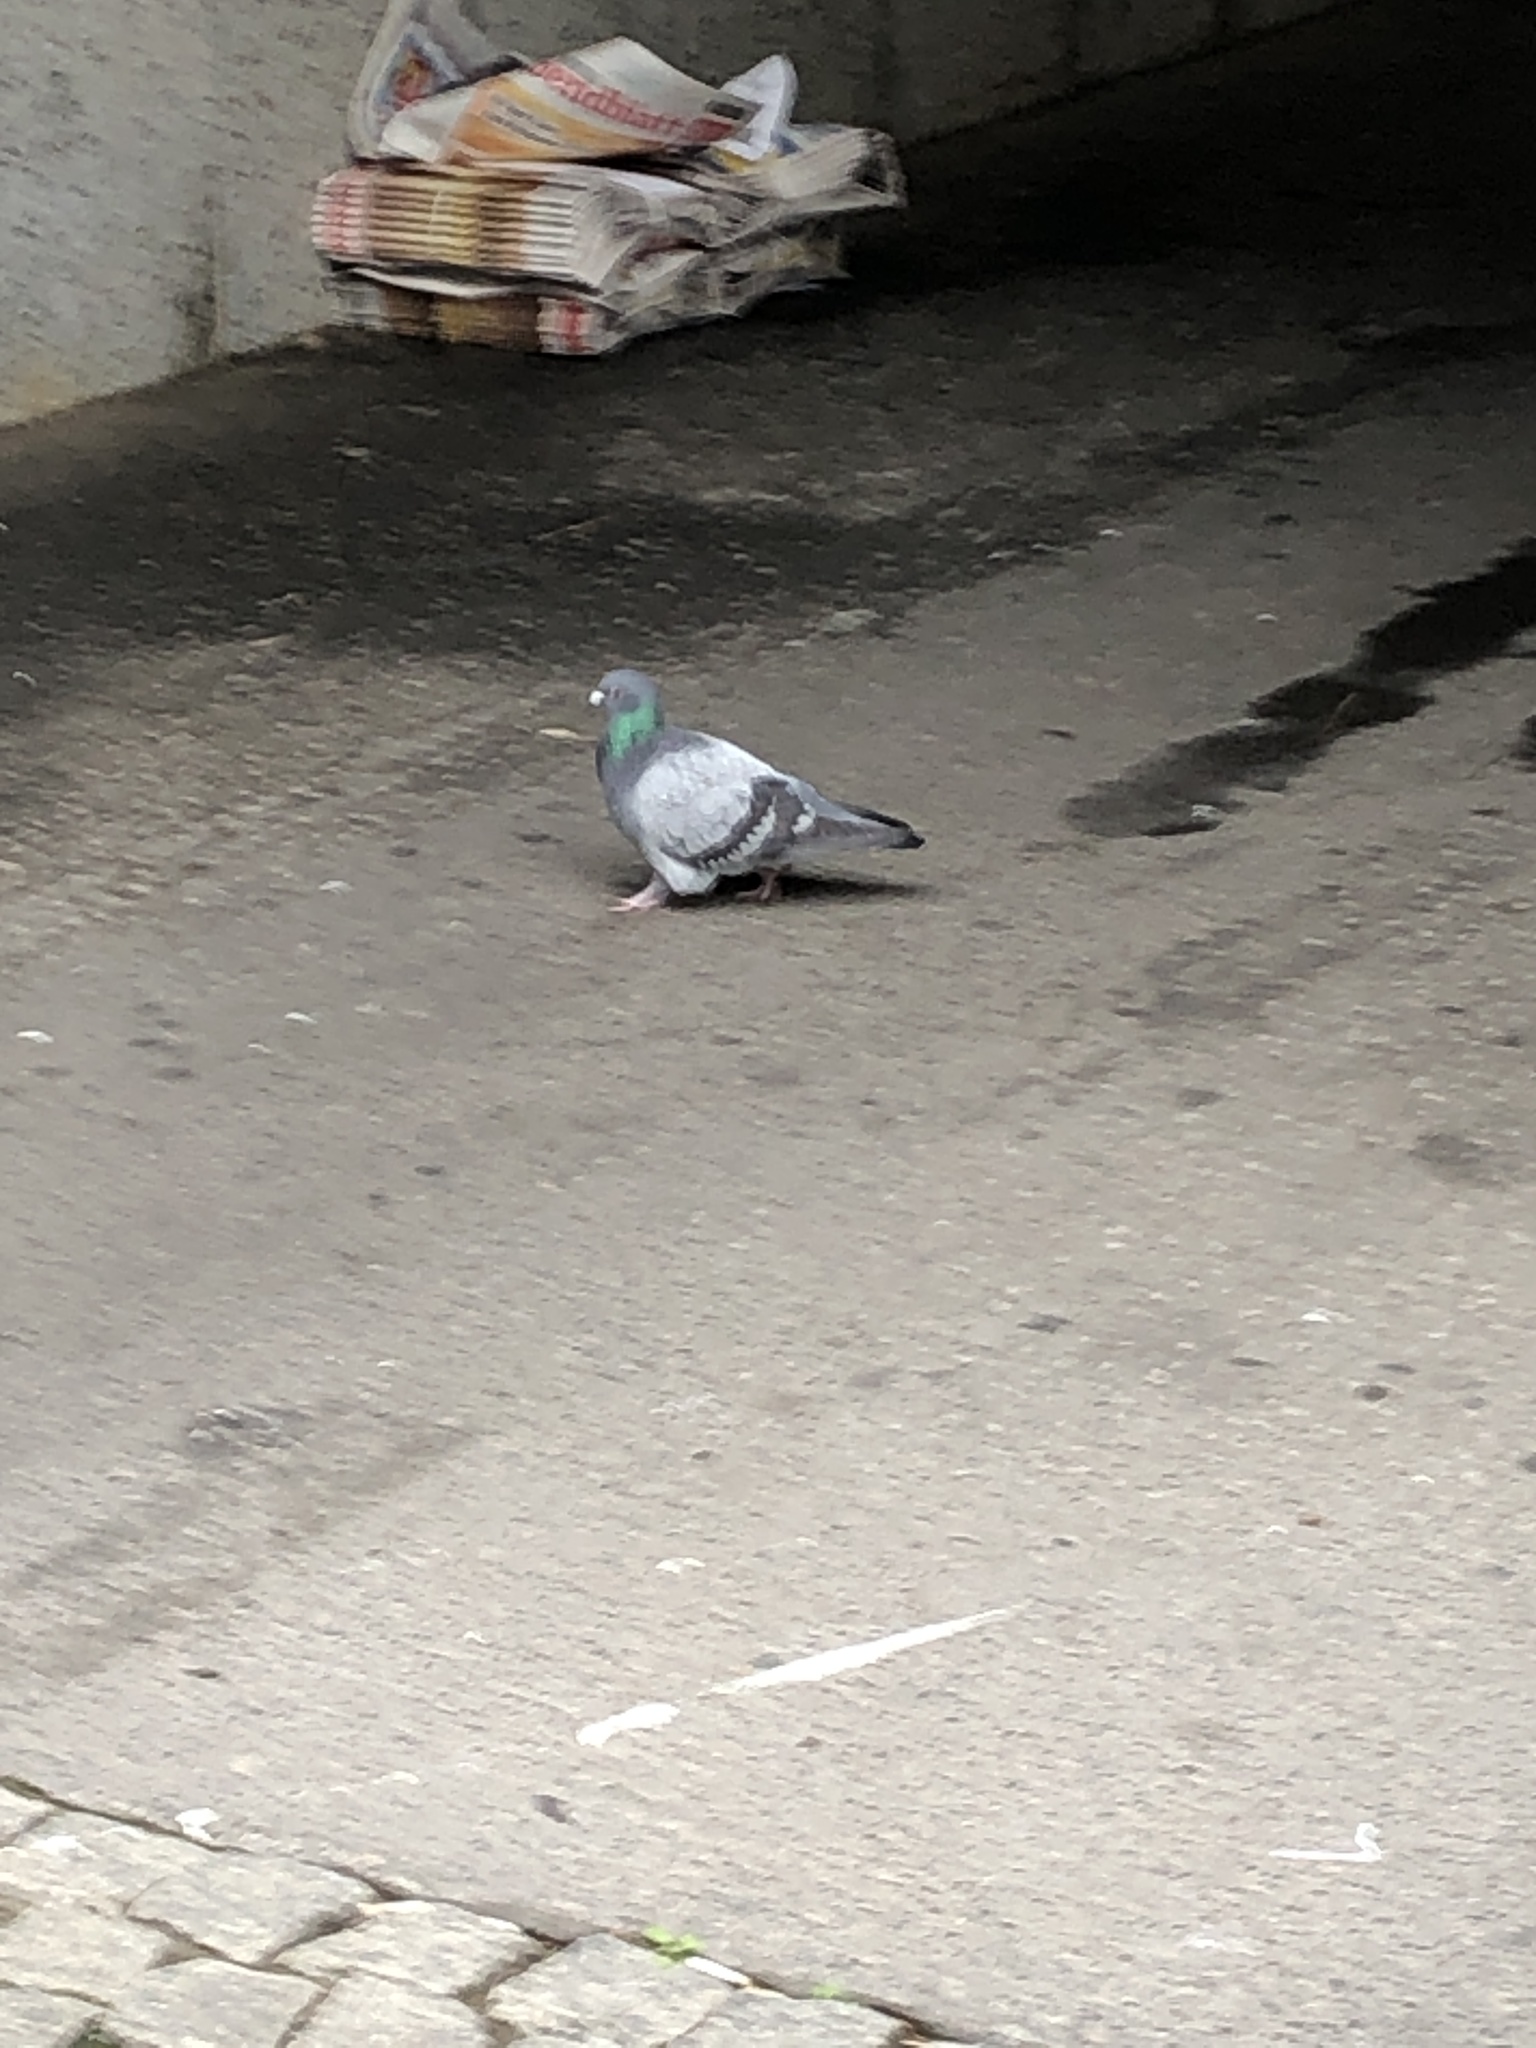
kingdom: Animalia
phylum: Chordata
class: Aves
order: Columbiformes
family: Columbidae
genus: Columba
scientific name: Columba livia
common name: Rock pigeon
